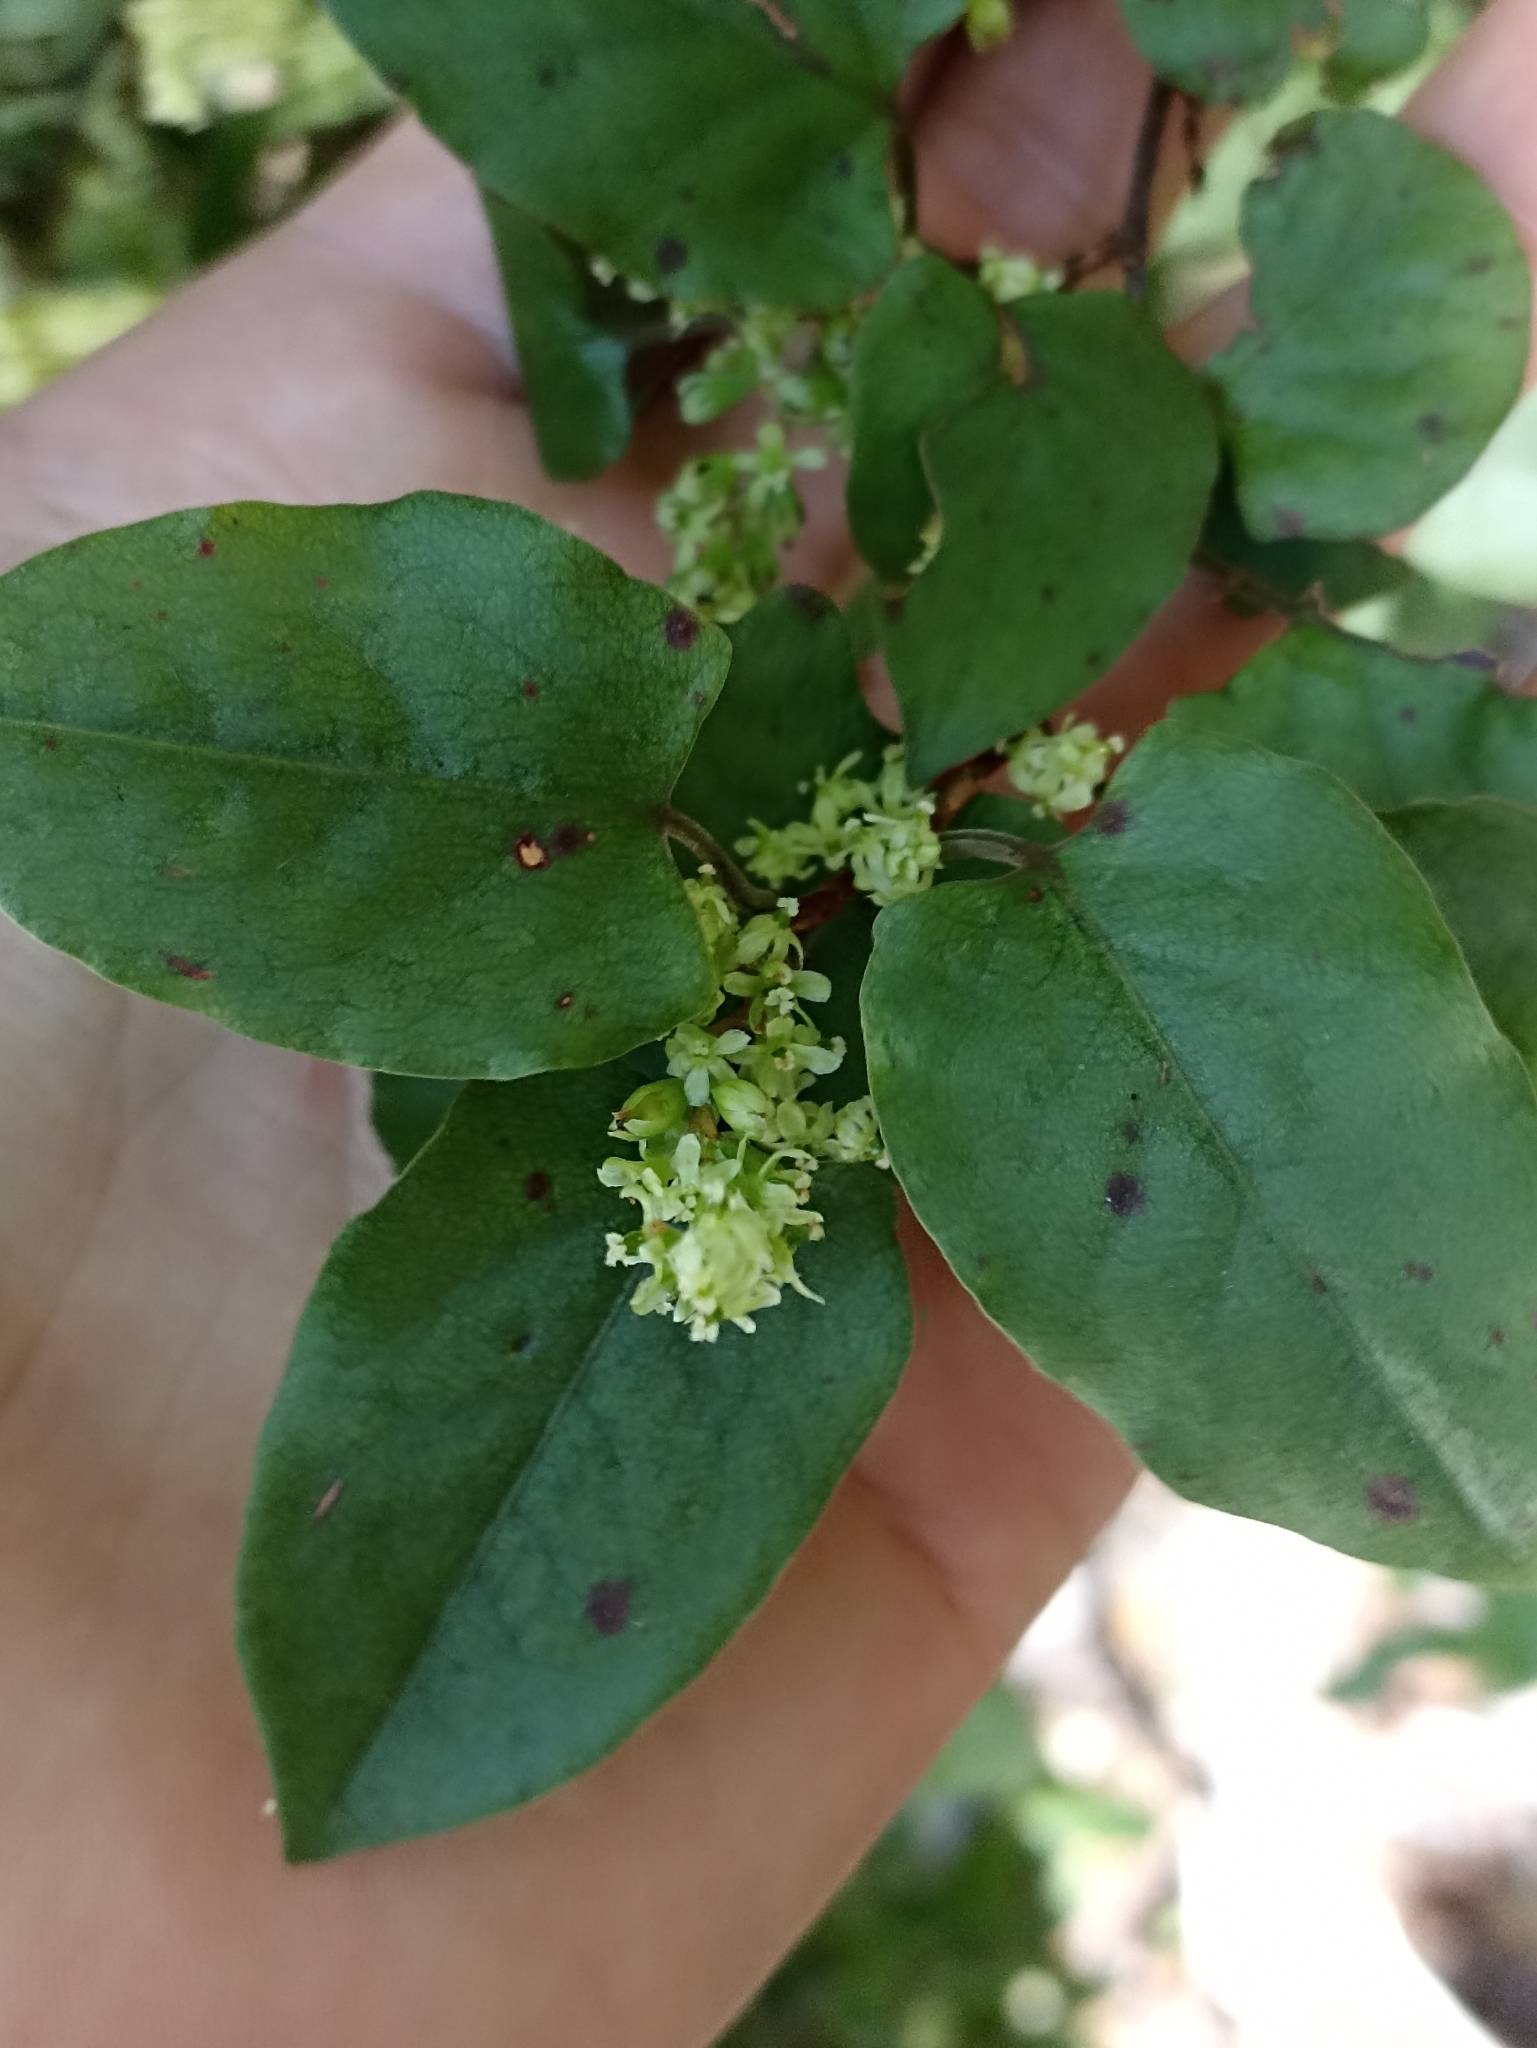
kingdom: Plantae
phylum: Tracheophyta
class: Magnoliopsida
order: Caryophyllales
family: Polygonaceae
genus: Muehlenbeckia
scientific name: Muehlenbeckia australis
